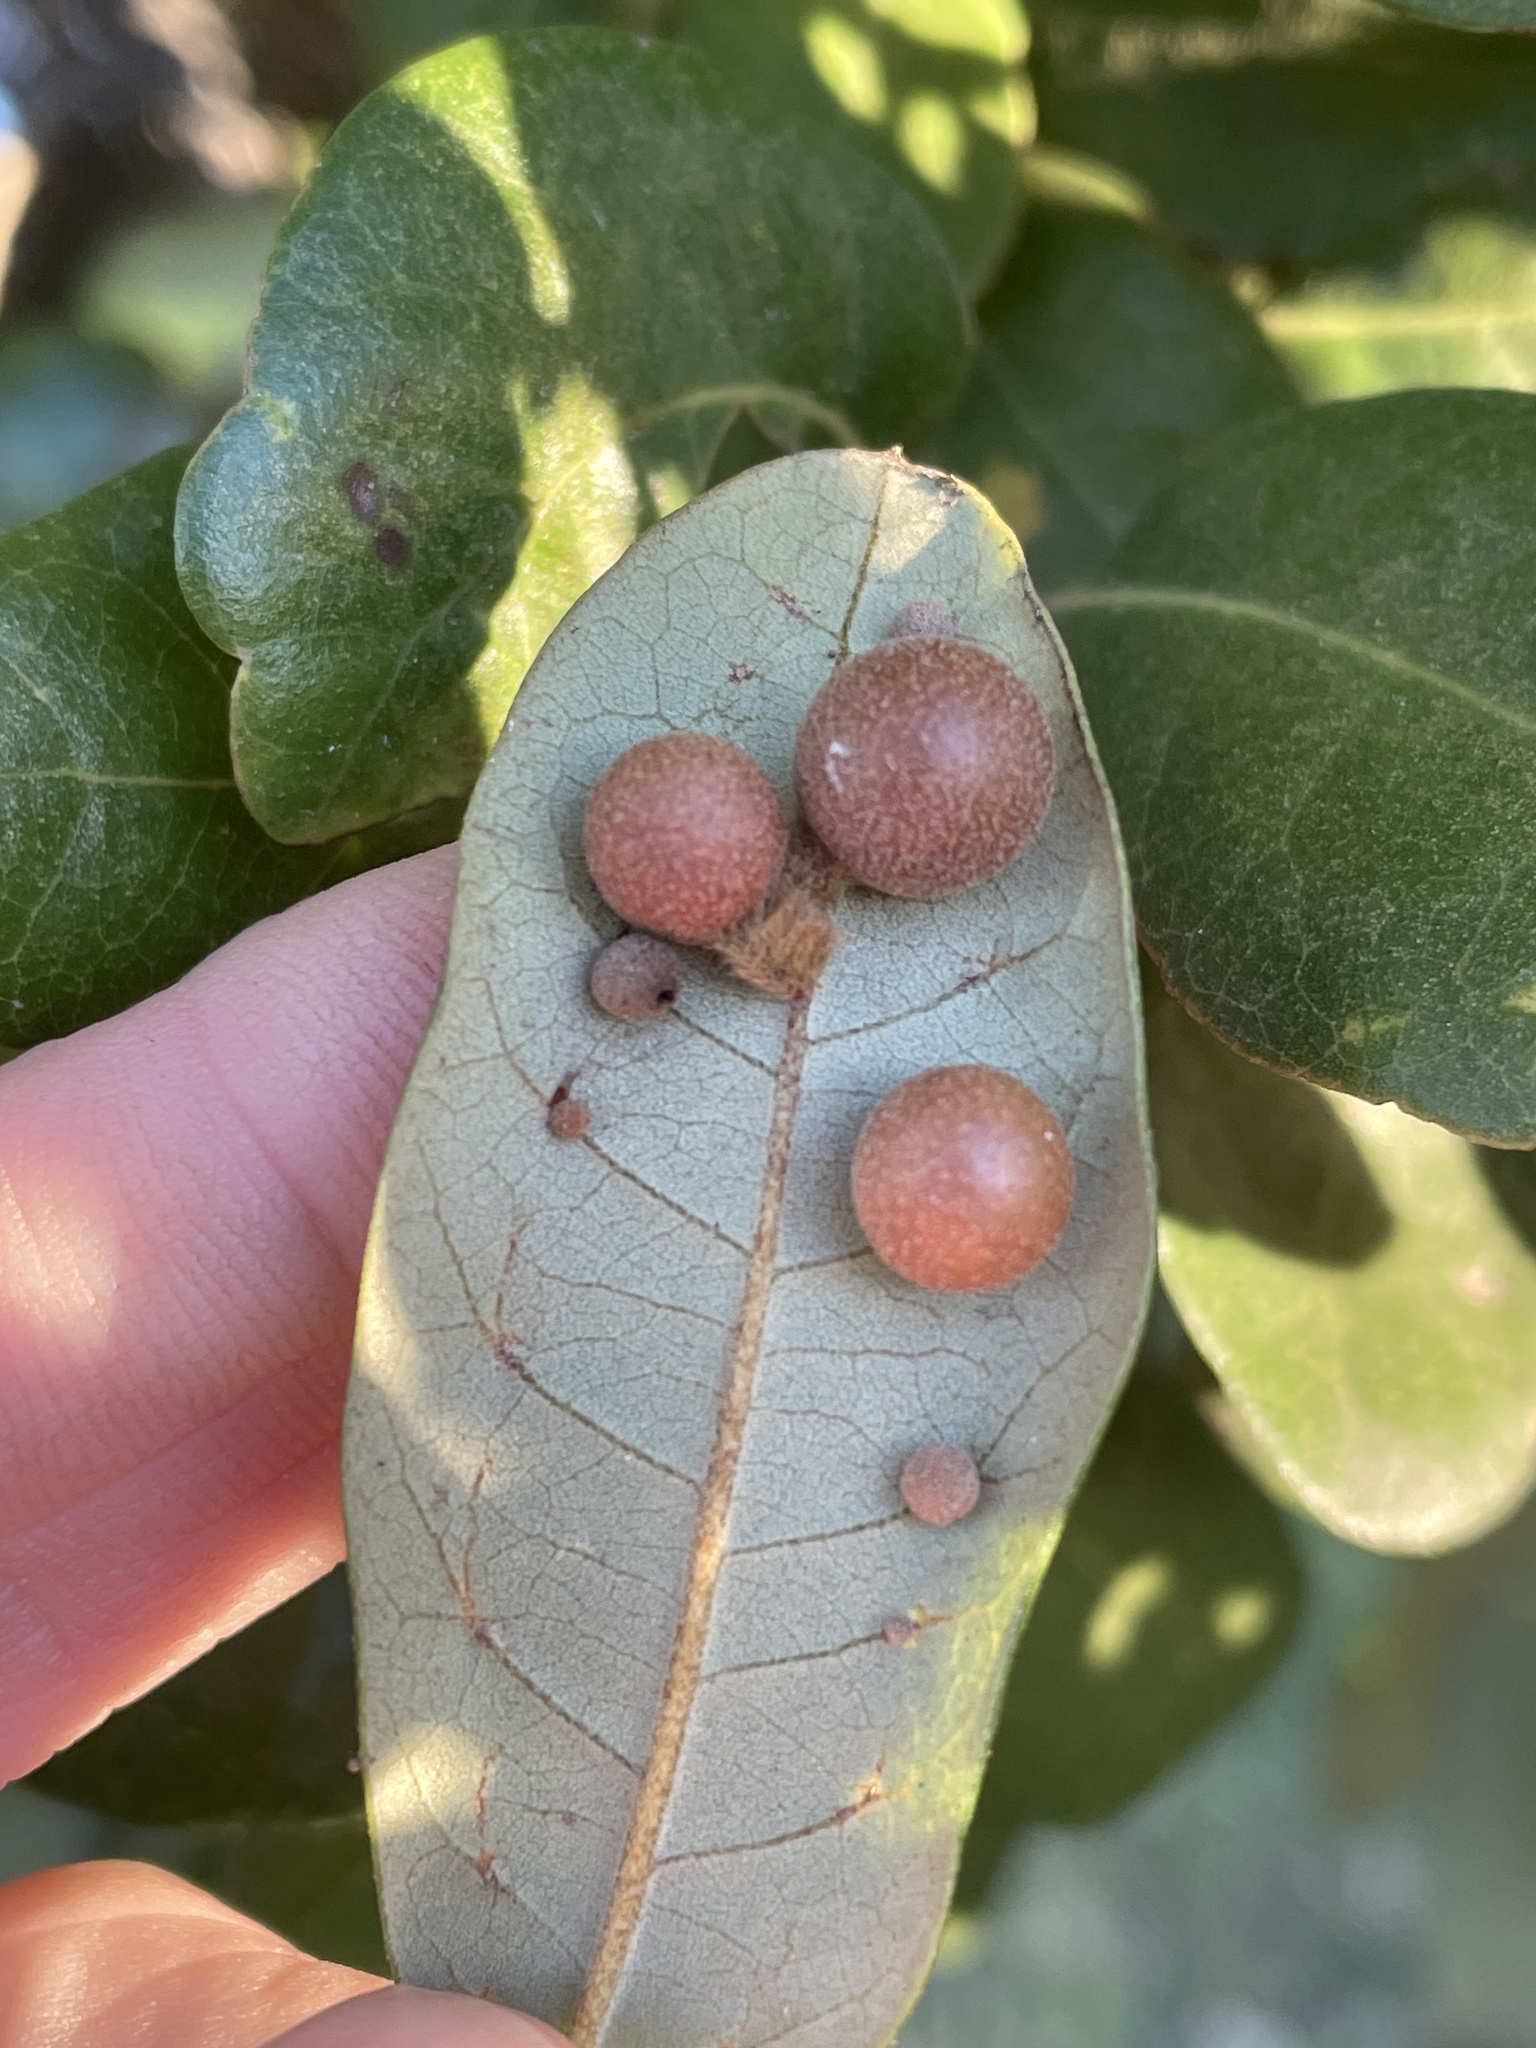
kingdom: Animalia
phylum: Arthropoda
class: Insecta
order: Hymenoptera
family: Cynipidae
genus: Belonocnema
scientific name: Belonocnema kinseyi
